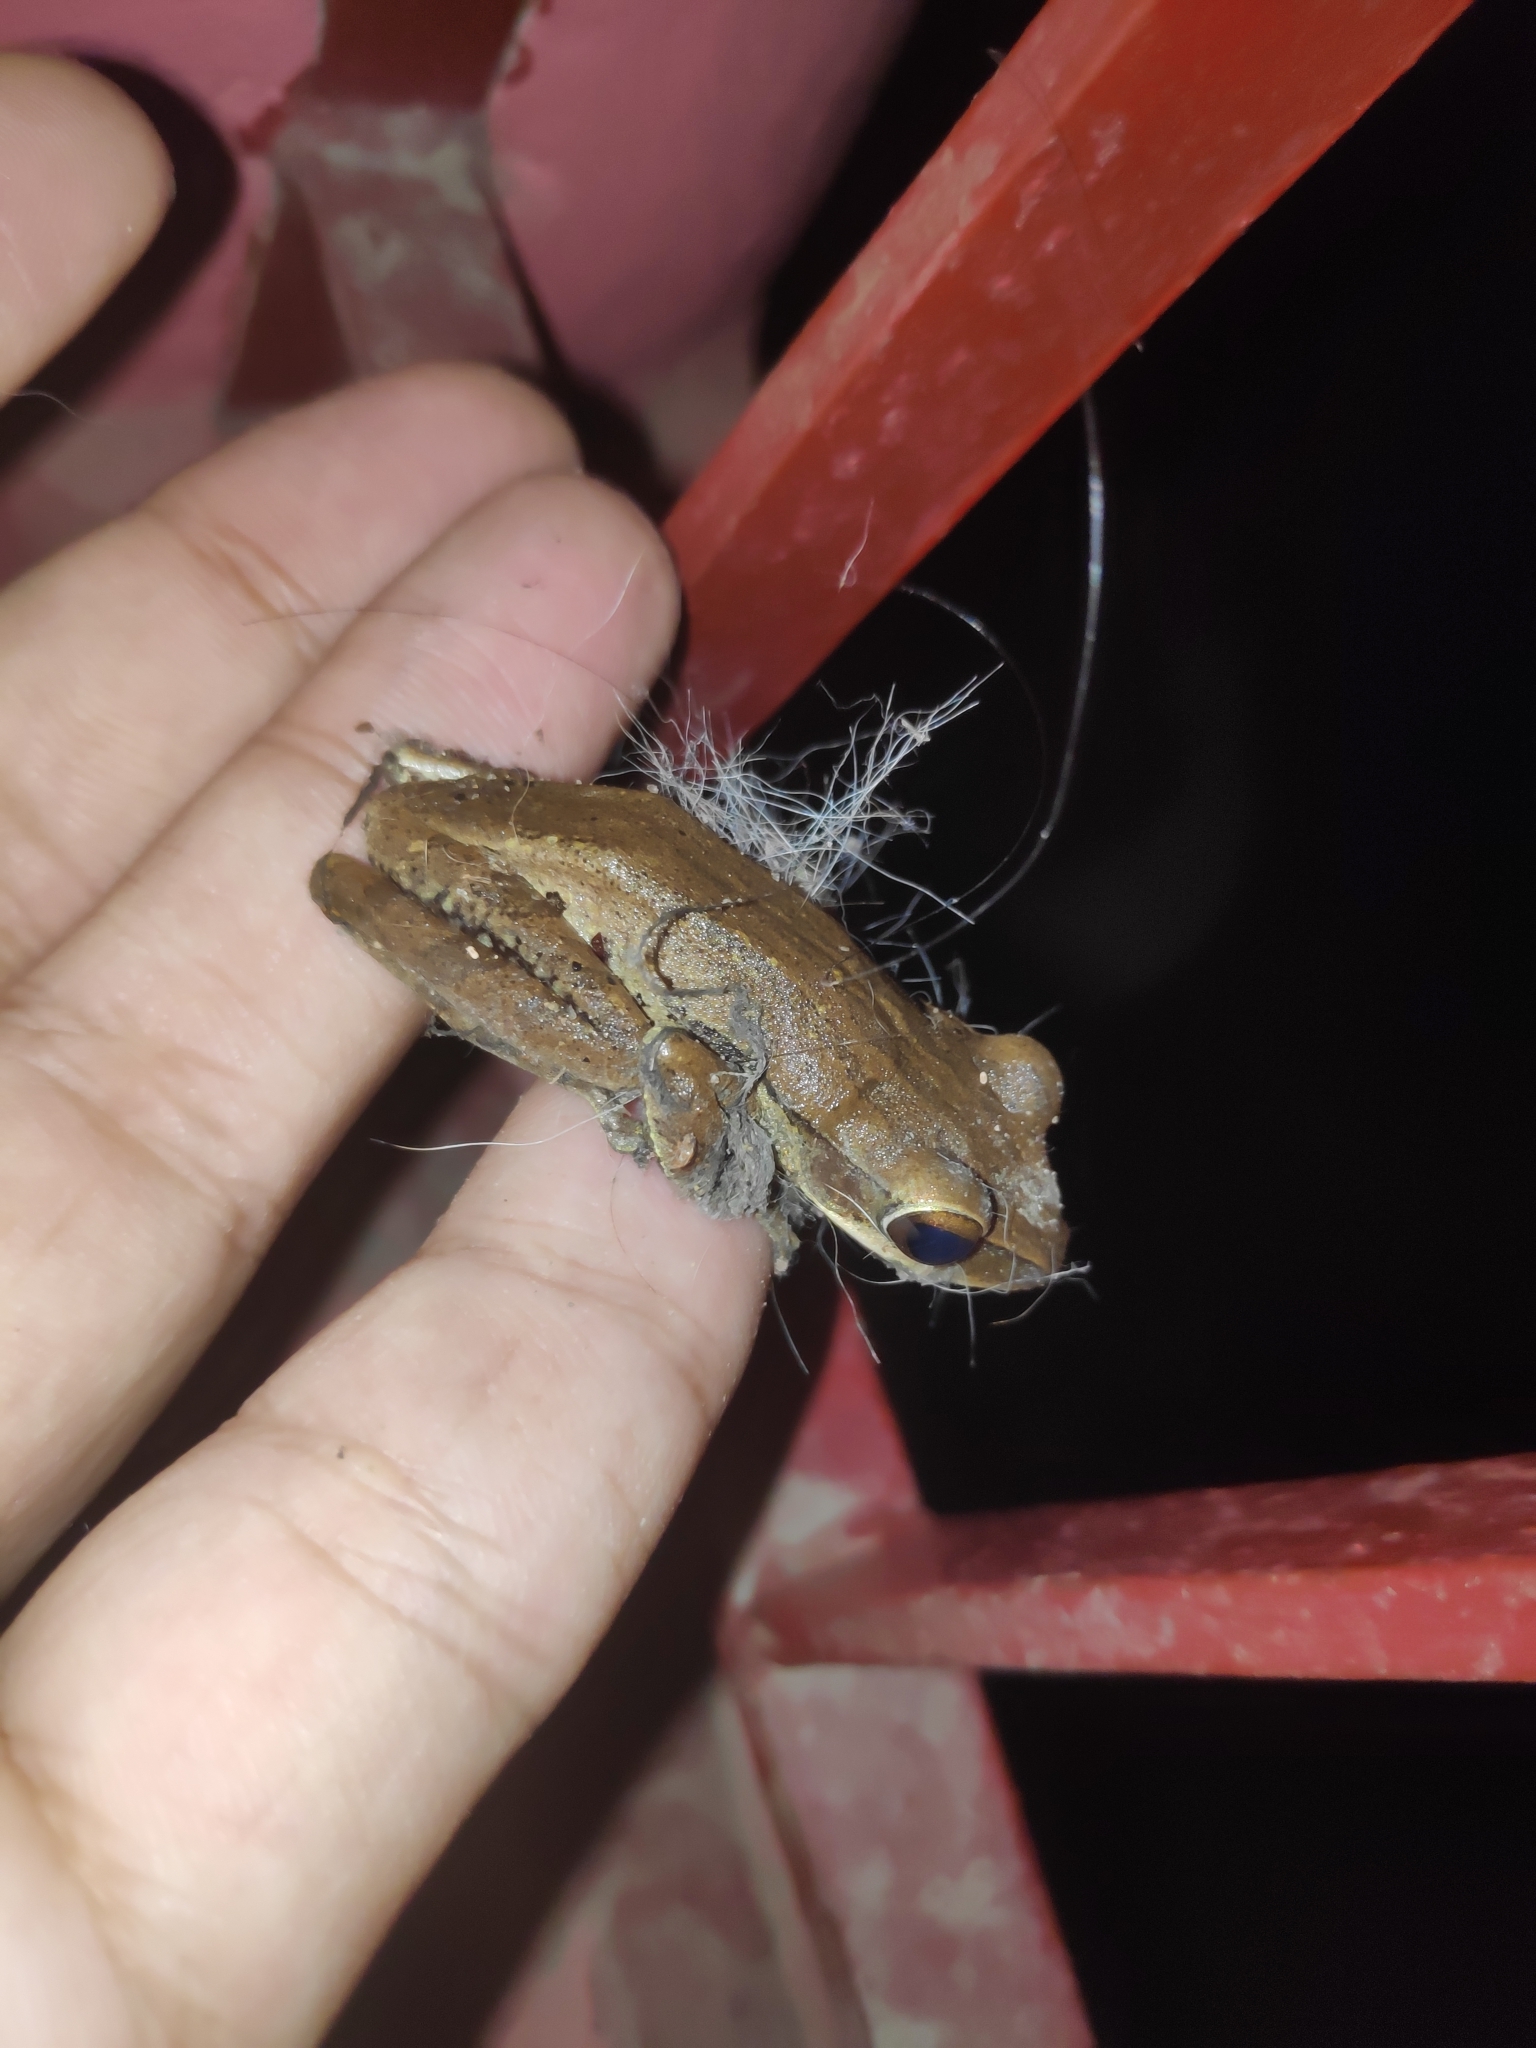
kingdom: Animalia
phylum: Chordata
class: Amphibia
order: Anura
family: Rhacophoridae
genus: Polypedates
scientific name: Polypedates
